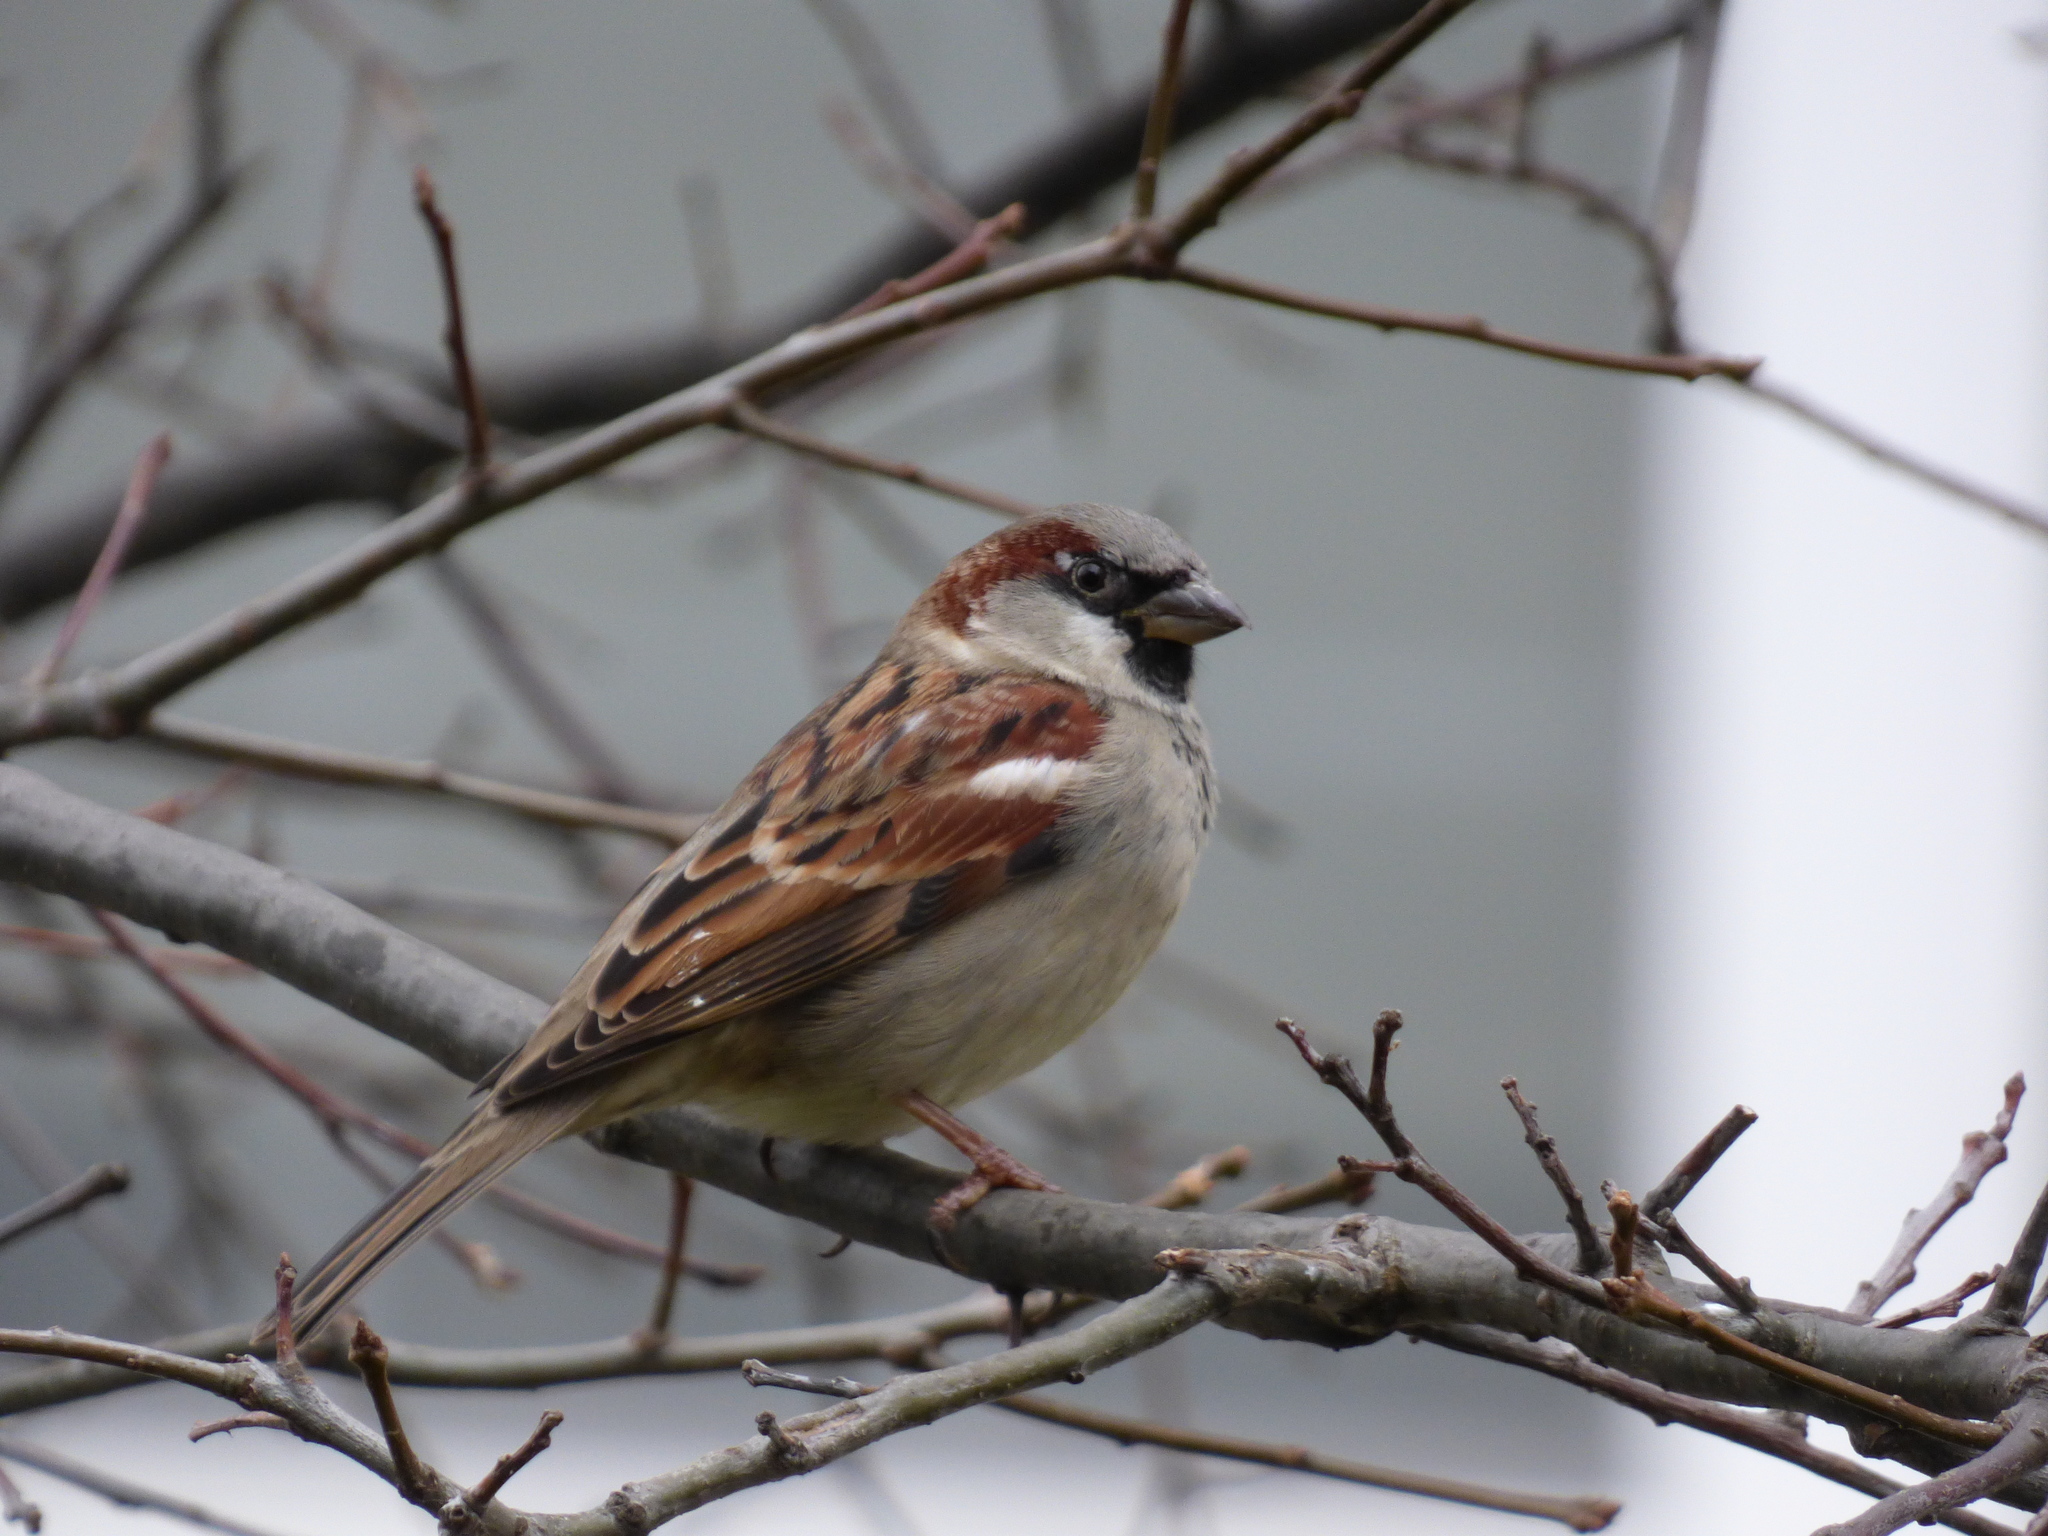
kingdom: Animalia
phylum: Chordata
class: Aves
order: Passeriformes
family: Passeridae
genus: Passer
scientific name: Passer domesticus
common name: House sparrow
